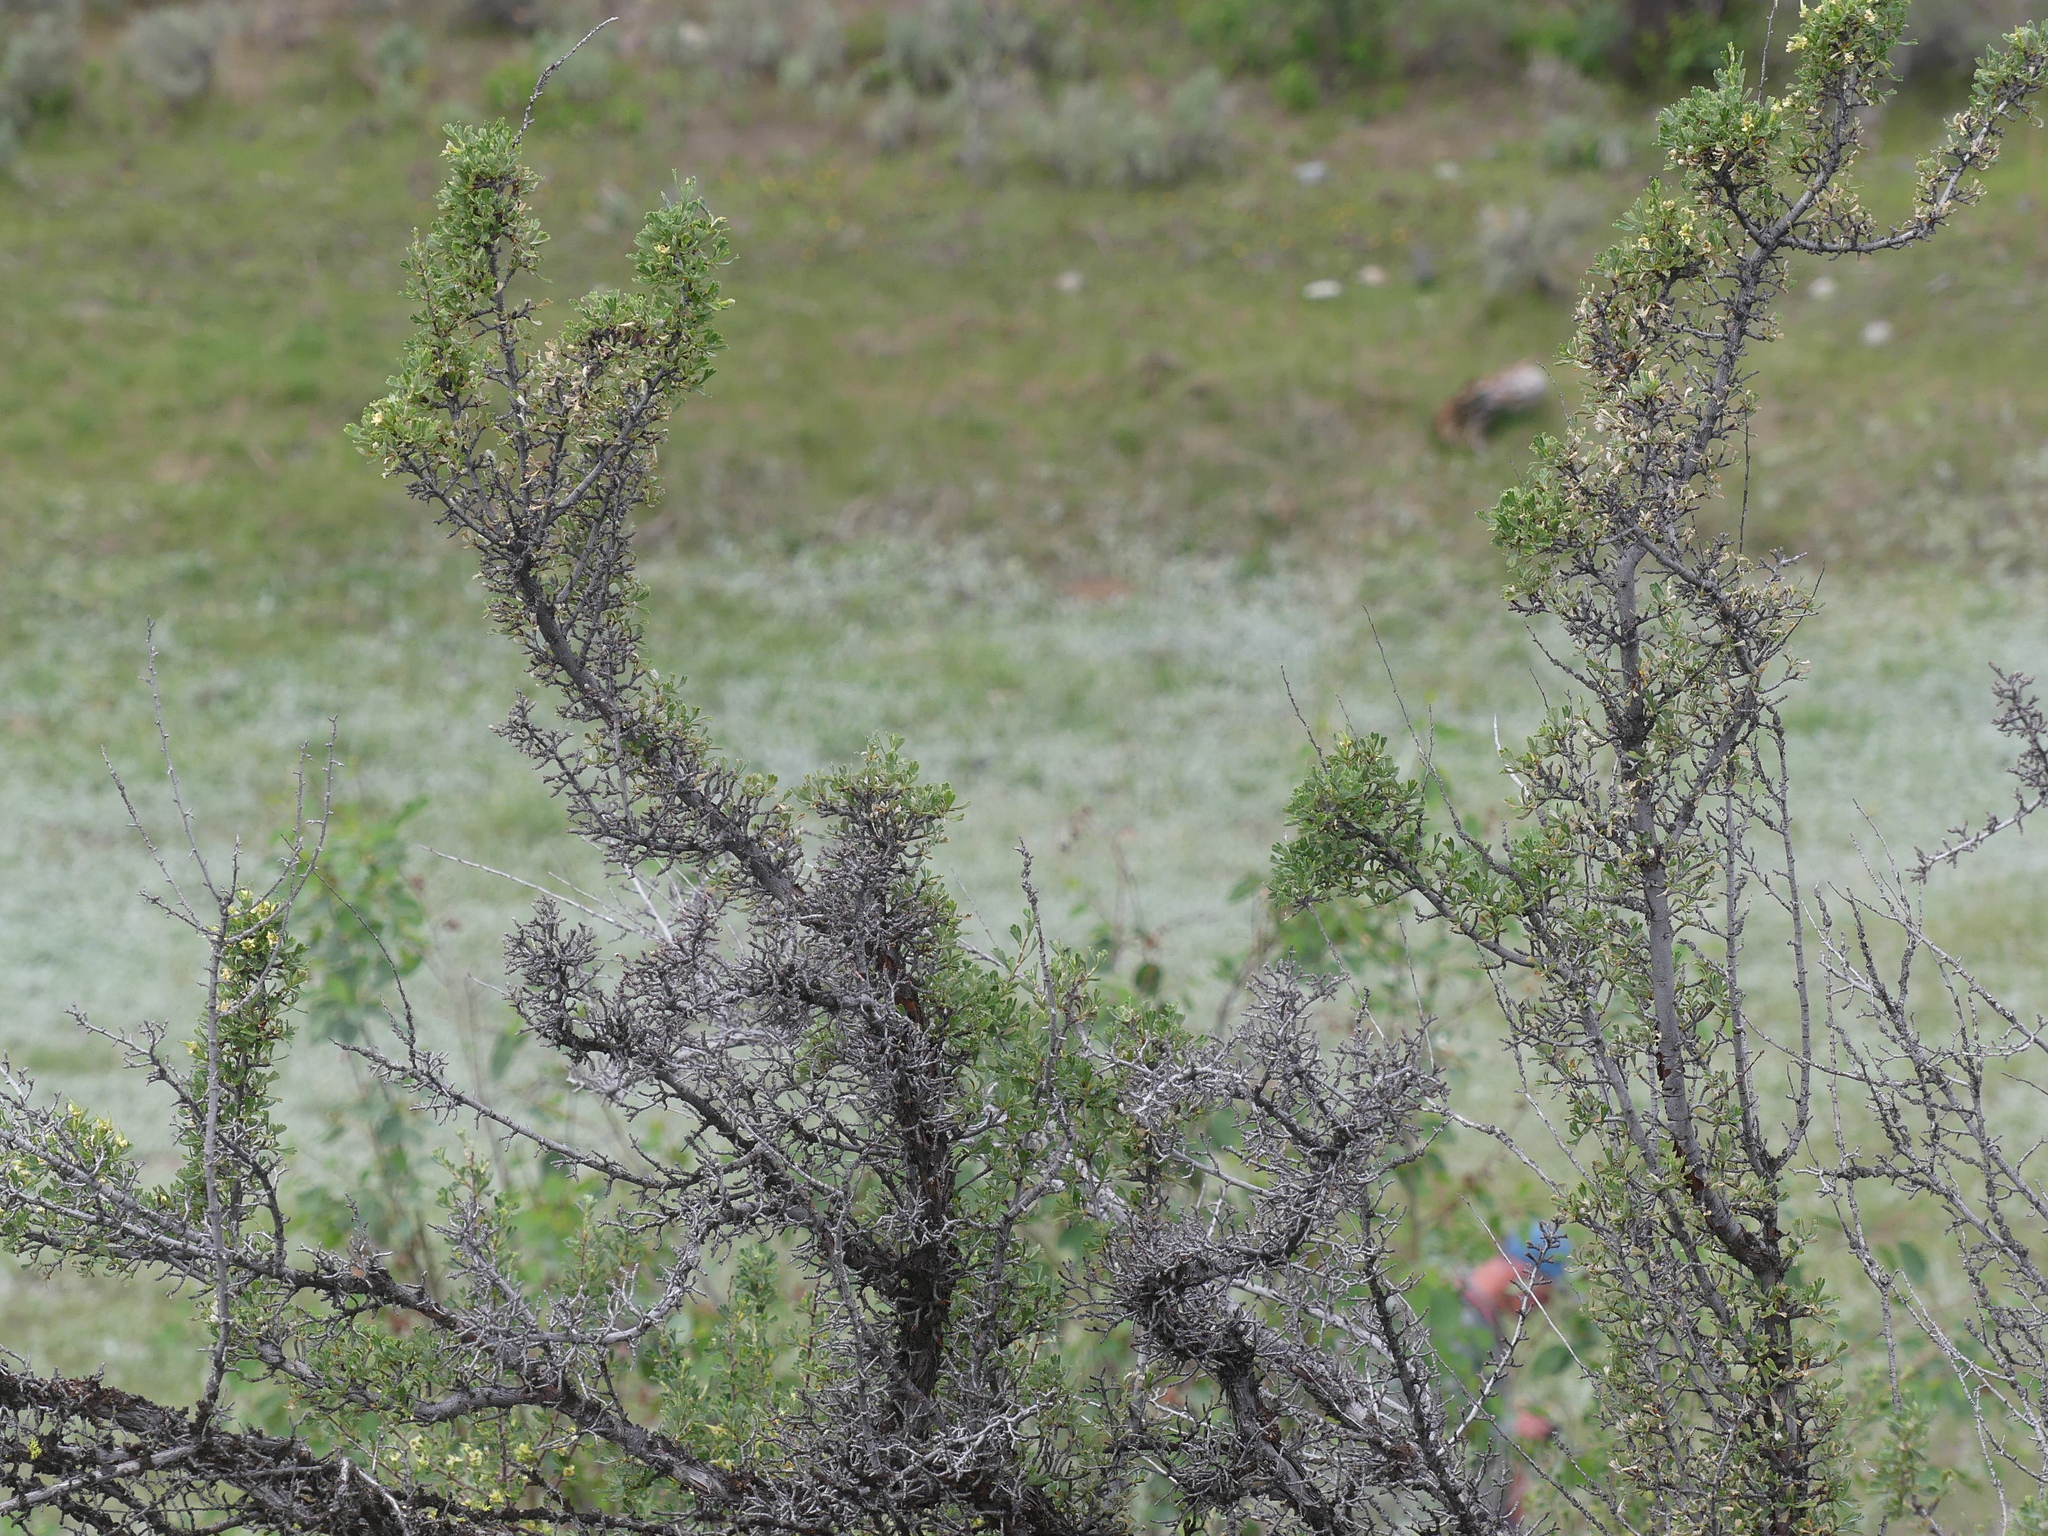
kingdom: Plantae
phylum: Tracheophyta
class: Magnoliopsida
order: Rosales
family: Rosaceae
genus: Purshia
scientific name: Purshia tridentata
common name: Antelope bitterbrush
